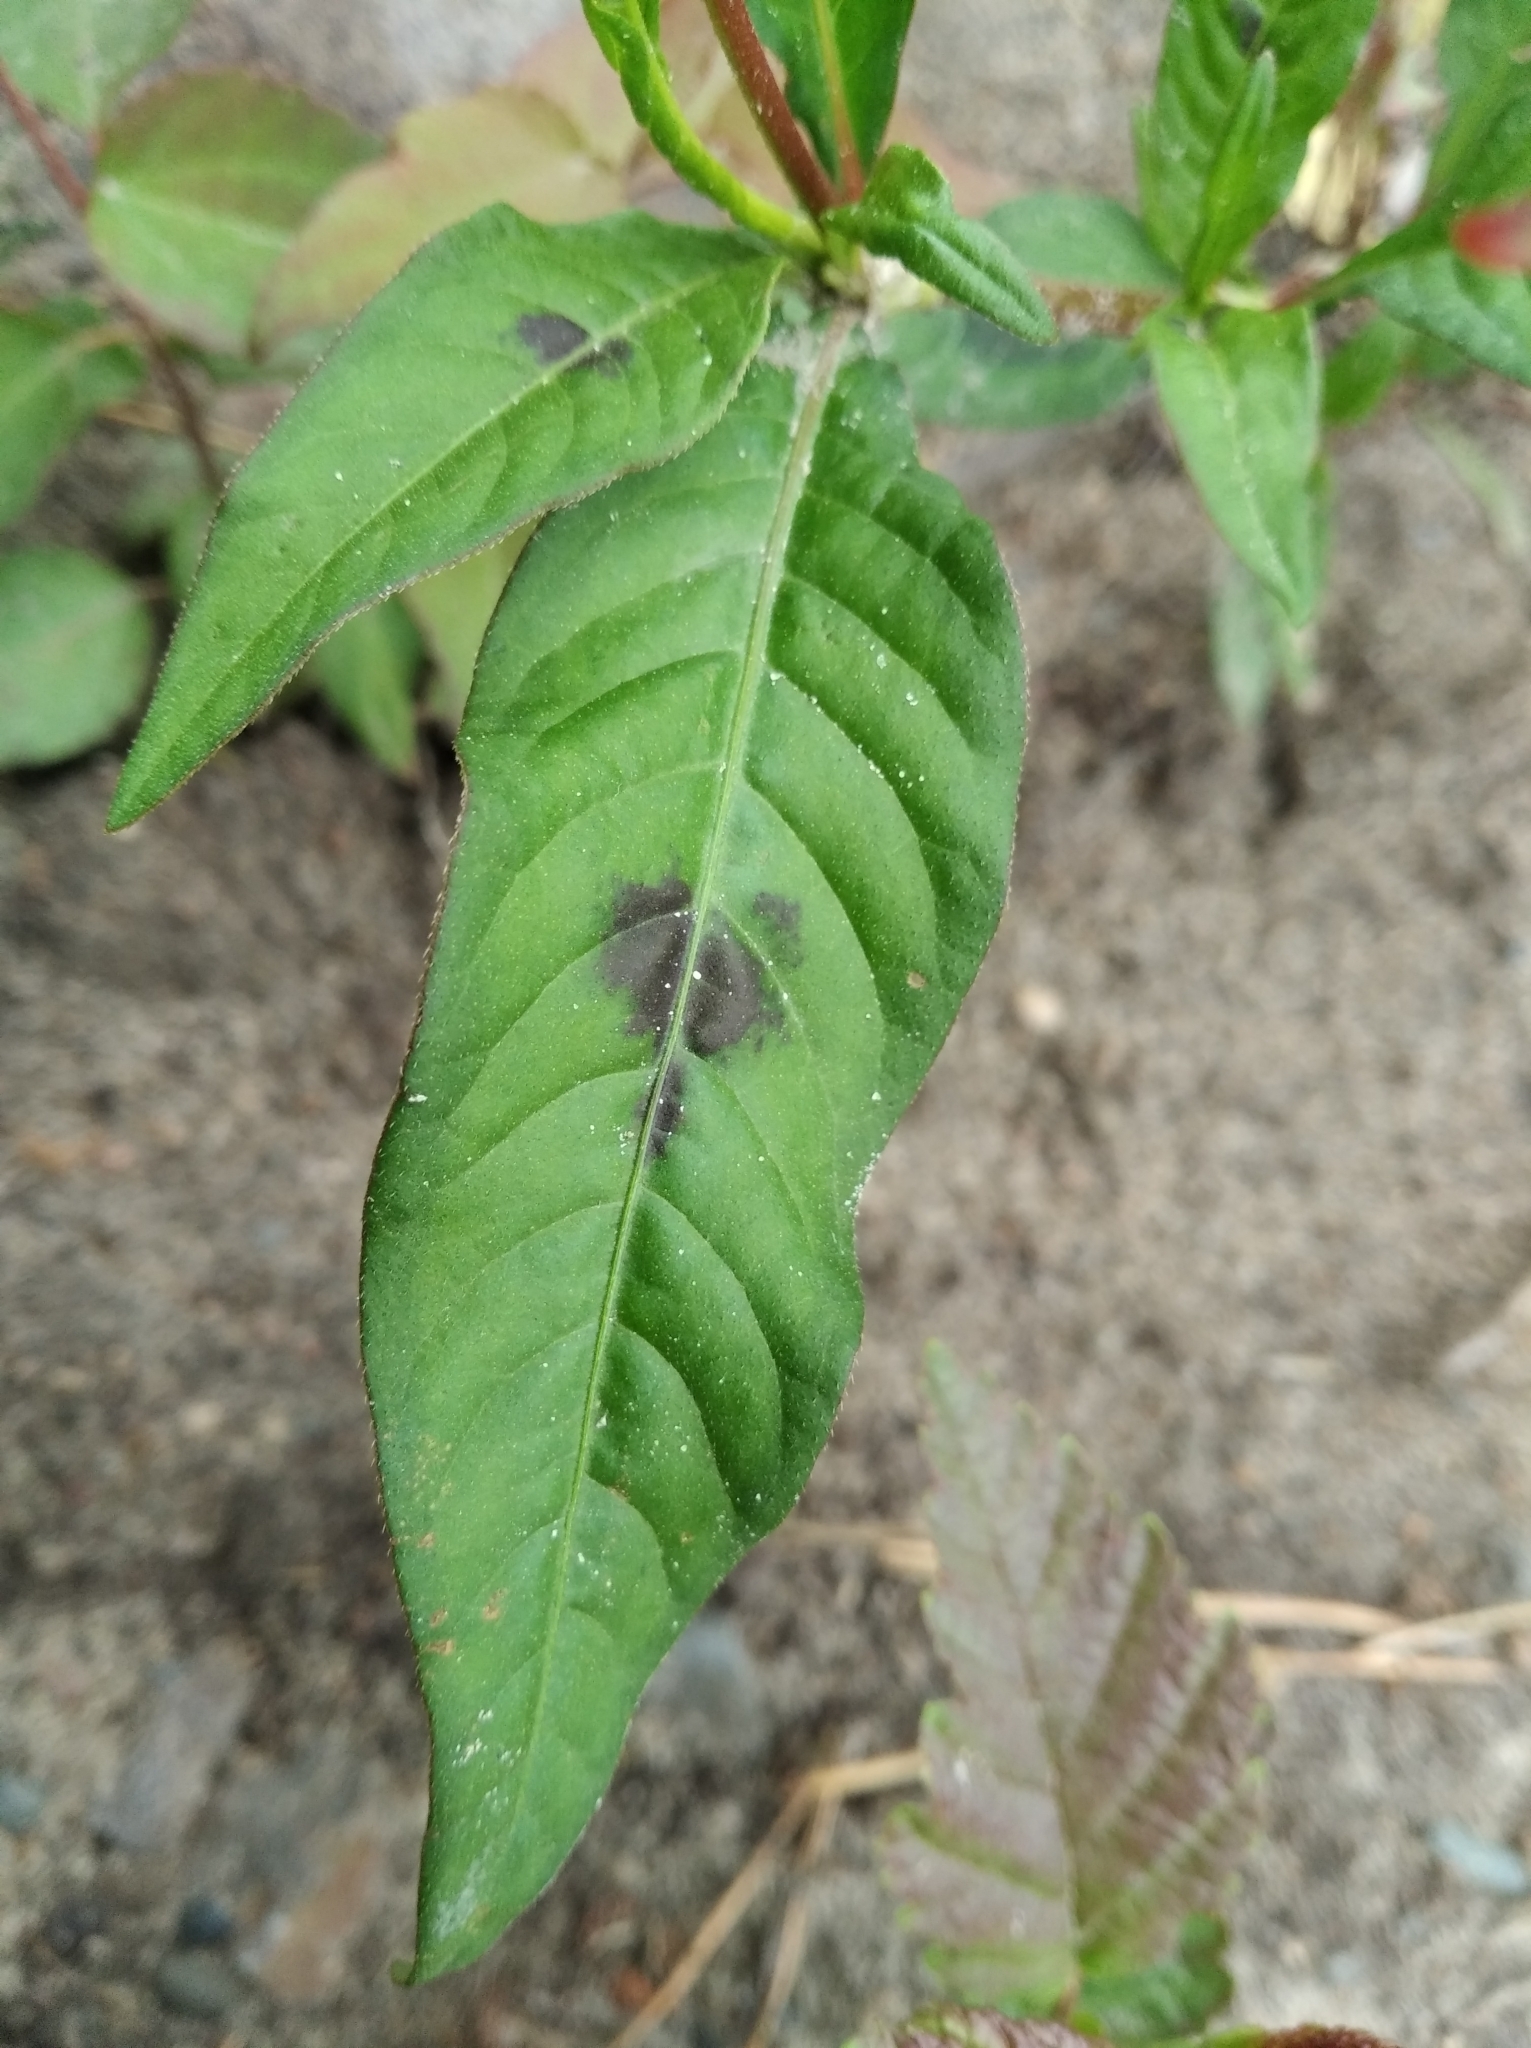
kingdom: Plantae
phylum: Tracheophyta
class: Magnoliopsida
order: Caryophyllales
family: Polygonaceae
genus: Persicaria
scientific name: Persicaria lapathifolia
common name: Curlytop knotweed
